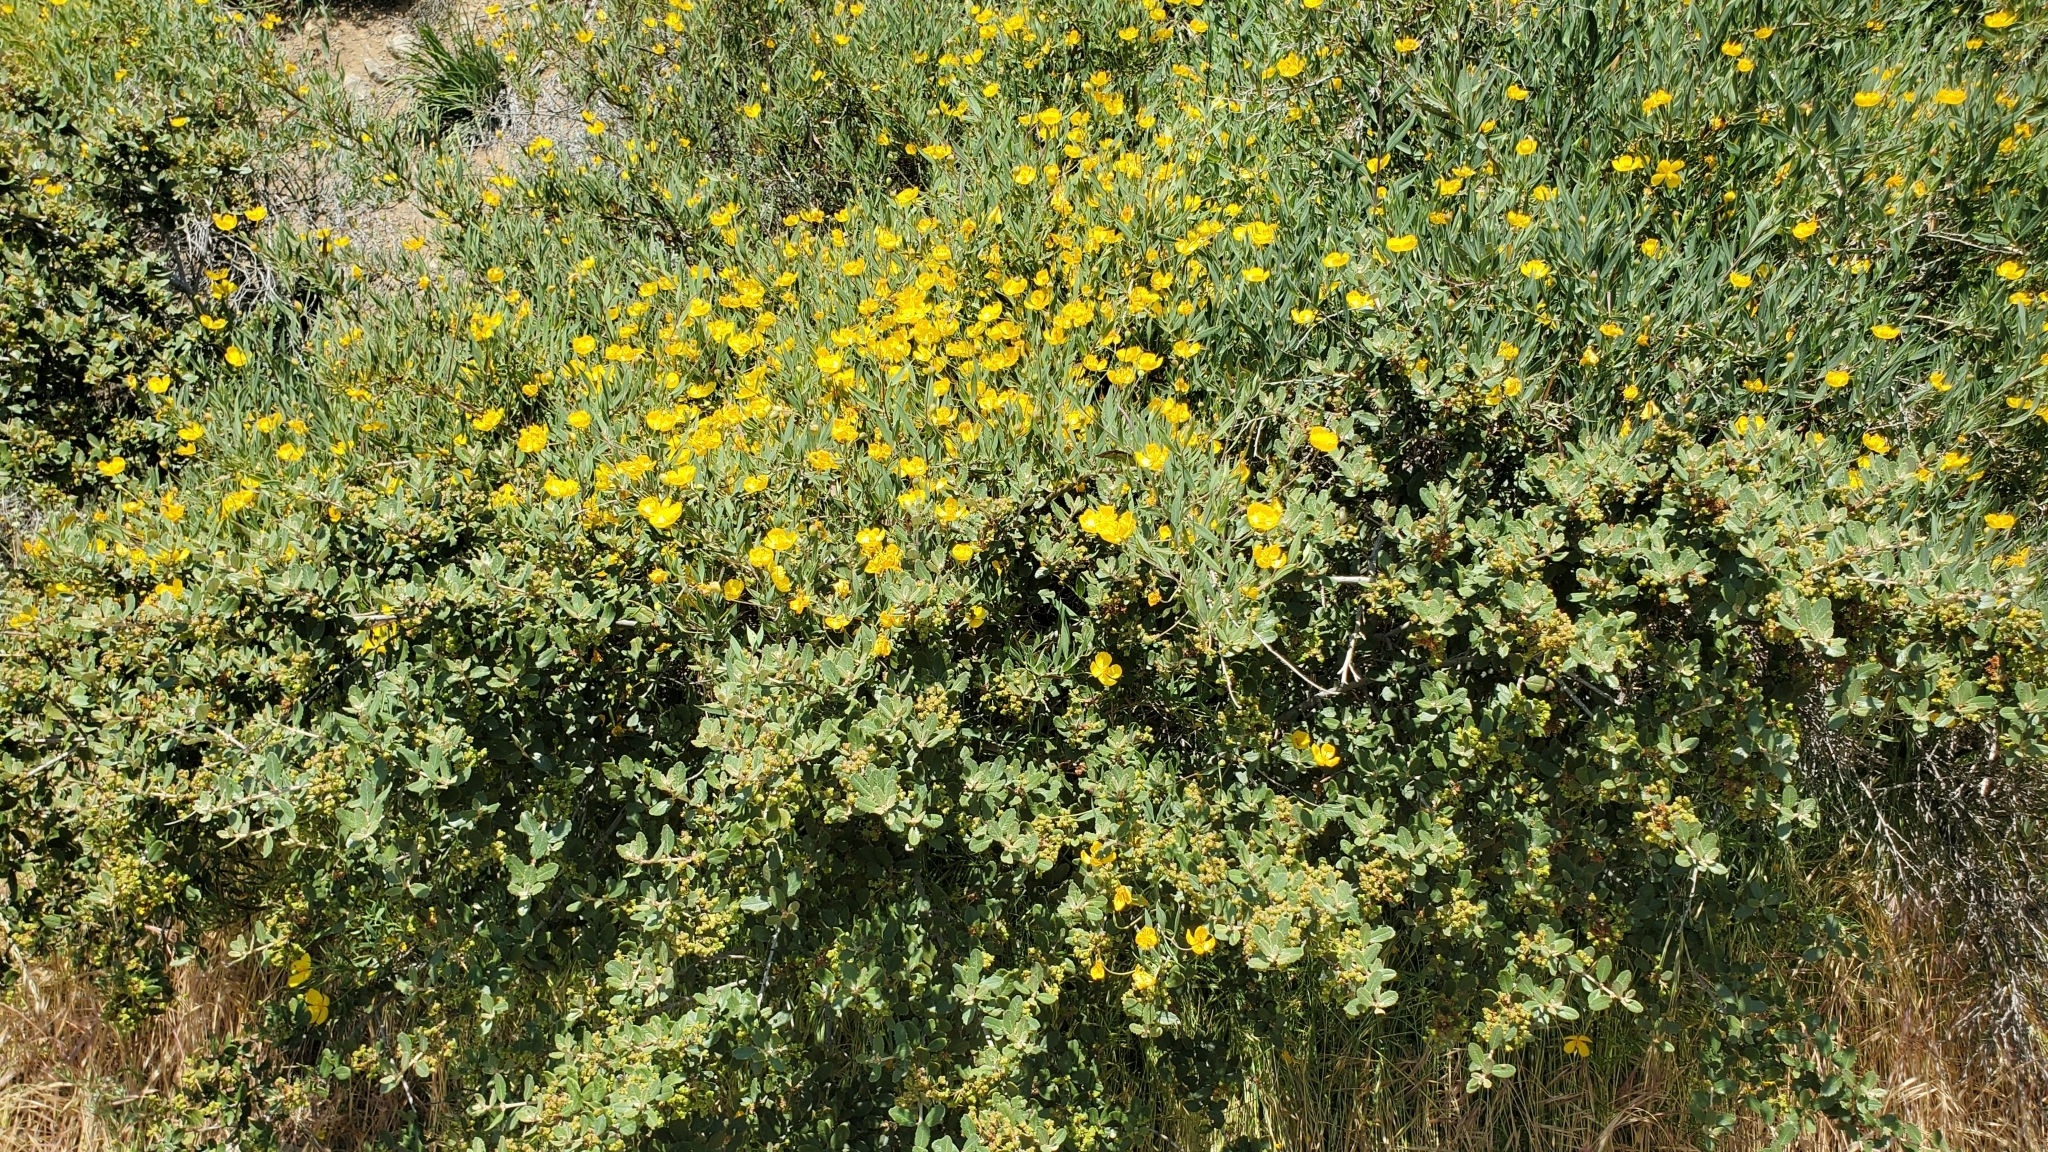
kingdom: Plantae
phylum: Tracheophyta
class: Magnoliopsida
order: Ranunculales
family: Papaveraceae
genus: Dendromecon
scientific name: Dendromecon rigida
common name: Tree poppy
